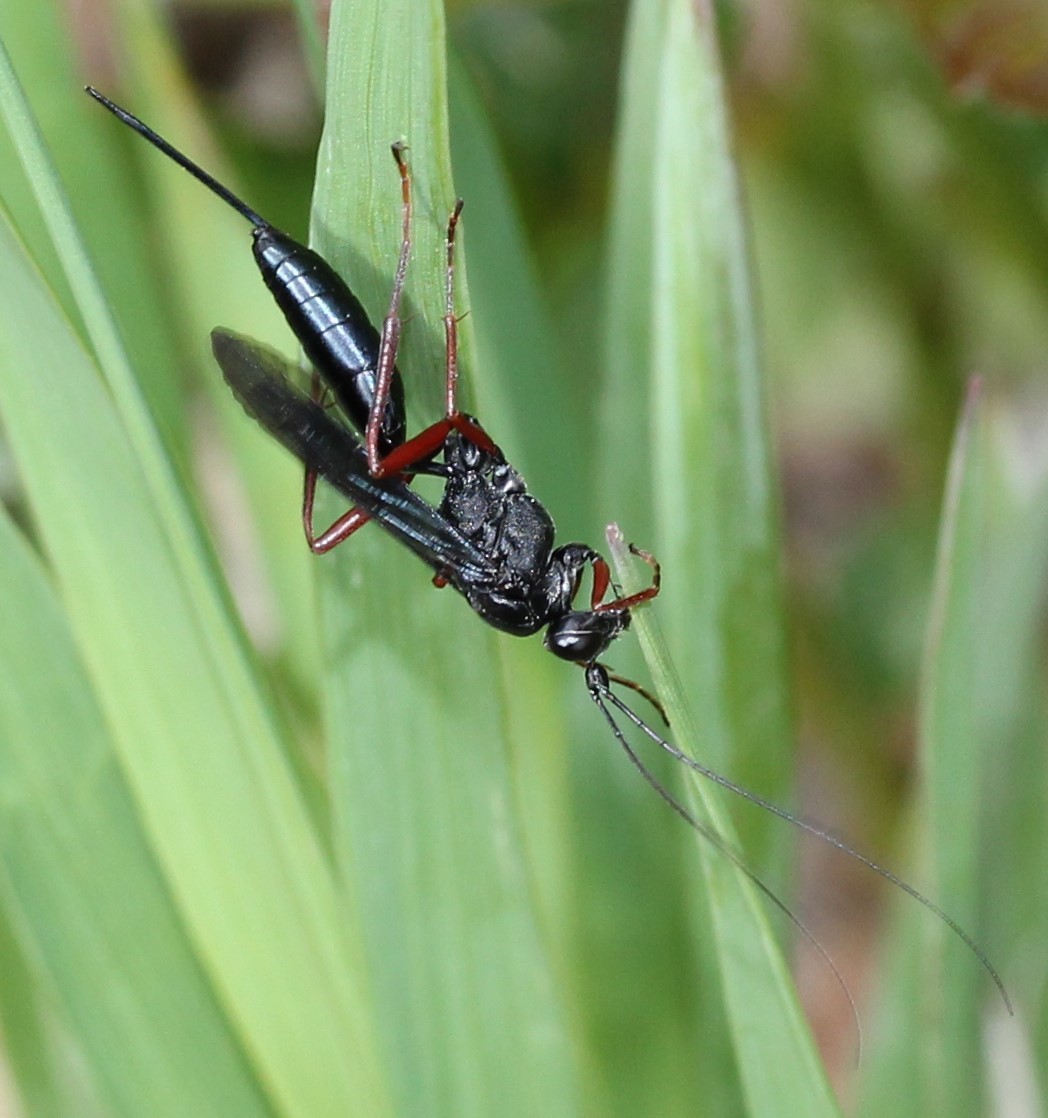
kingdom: Animalia
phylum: Arthropoda
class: Insecta
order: Hymenoptera
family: Ichneumonidae
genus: Buathra
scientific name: Buathra laborator
